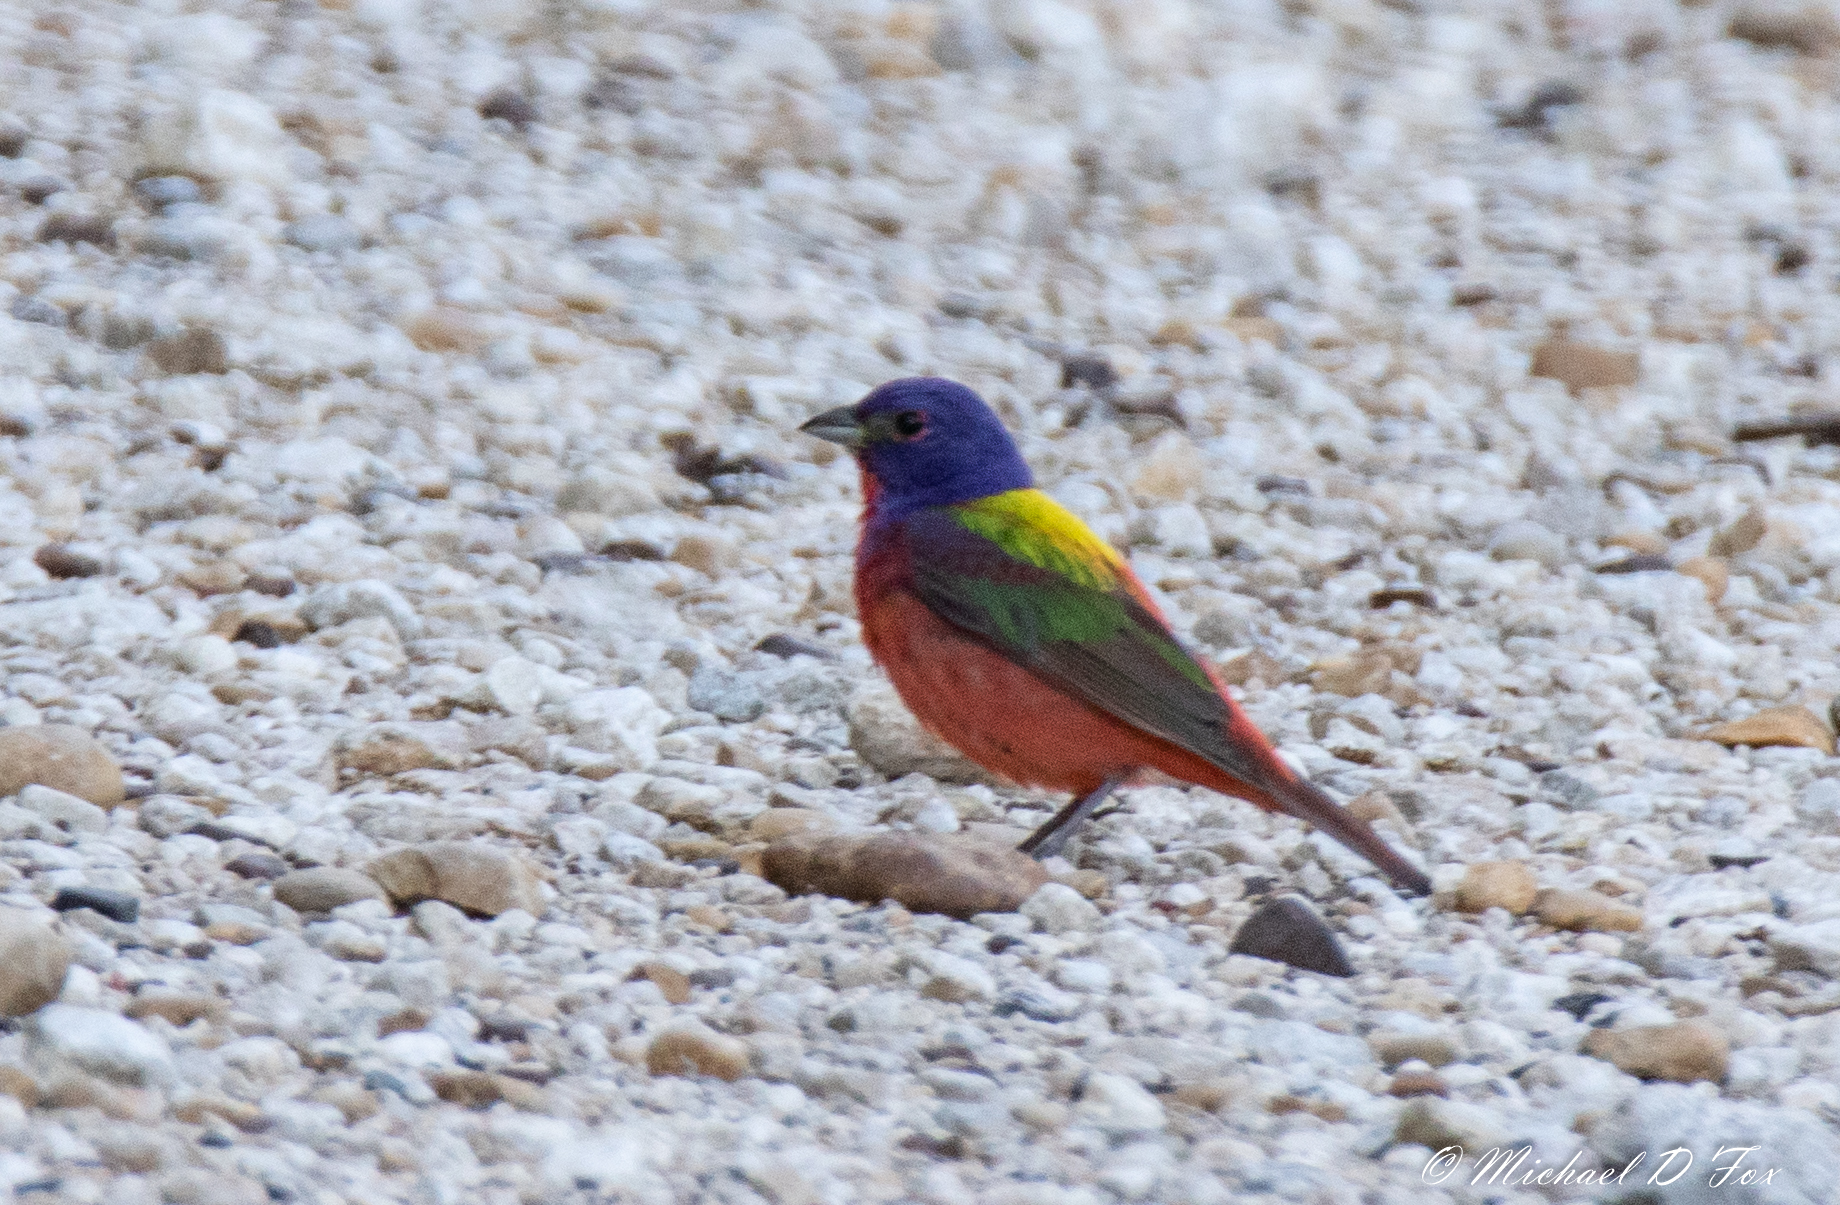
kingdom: Animalia
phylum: Chordata
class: Aves
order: Passeriformes
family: Cardinalidae
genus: Passerina
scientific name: Passerina ciris
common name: Painted bunting
